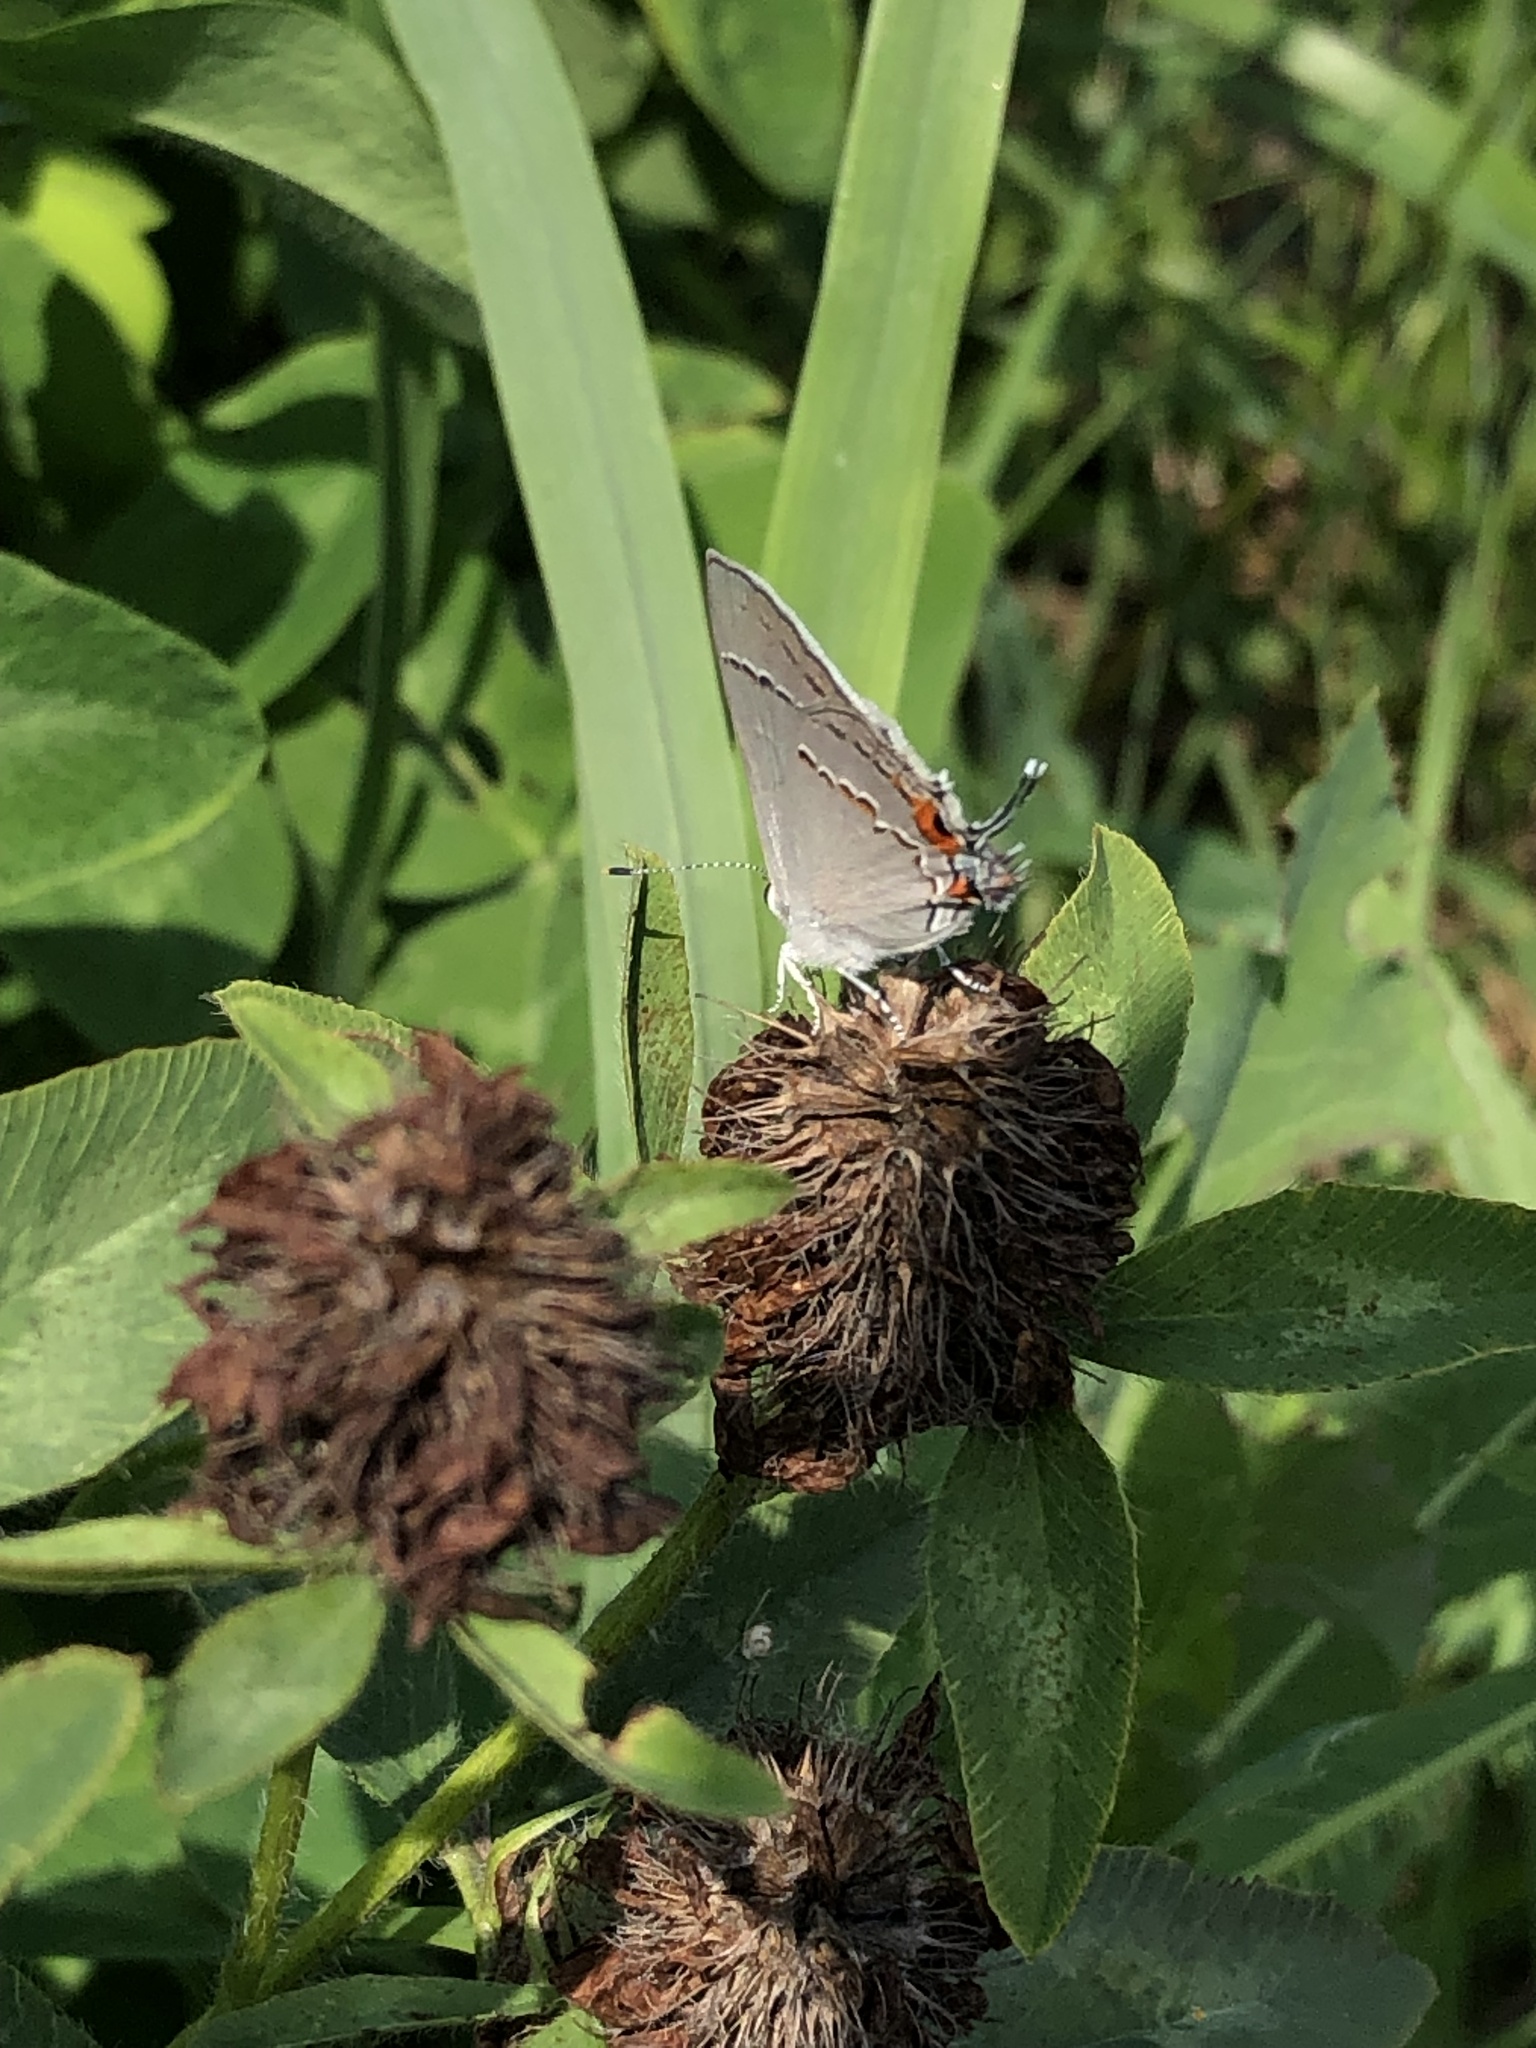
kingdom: Animalia
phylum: Arthropoda
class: Insecta
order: Lepidoptera
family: Lycaenidae
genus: Strymon
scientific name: Strymon melinus
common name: Gray hairstreak
